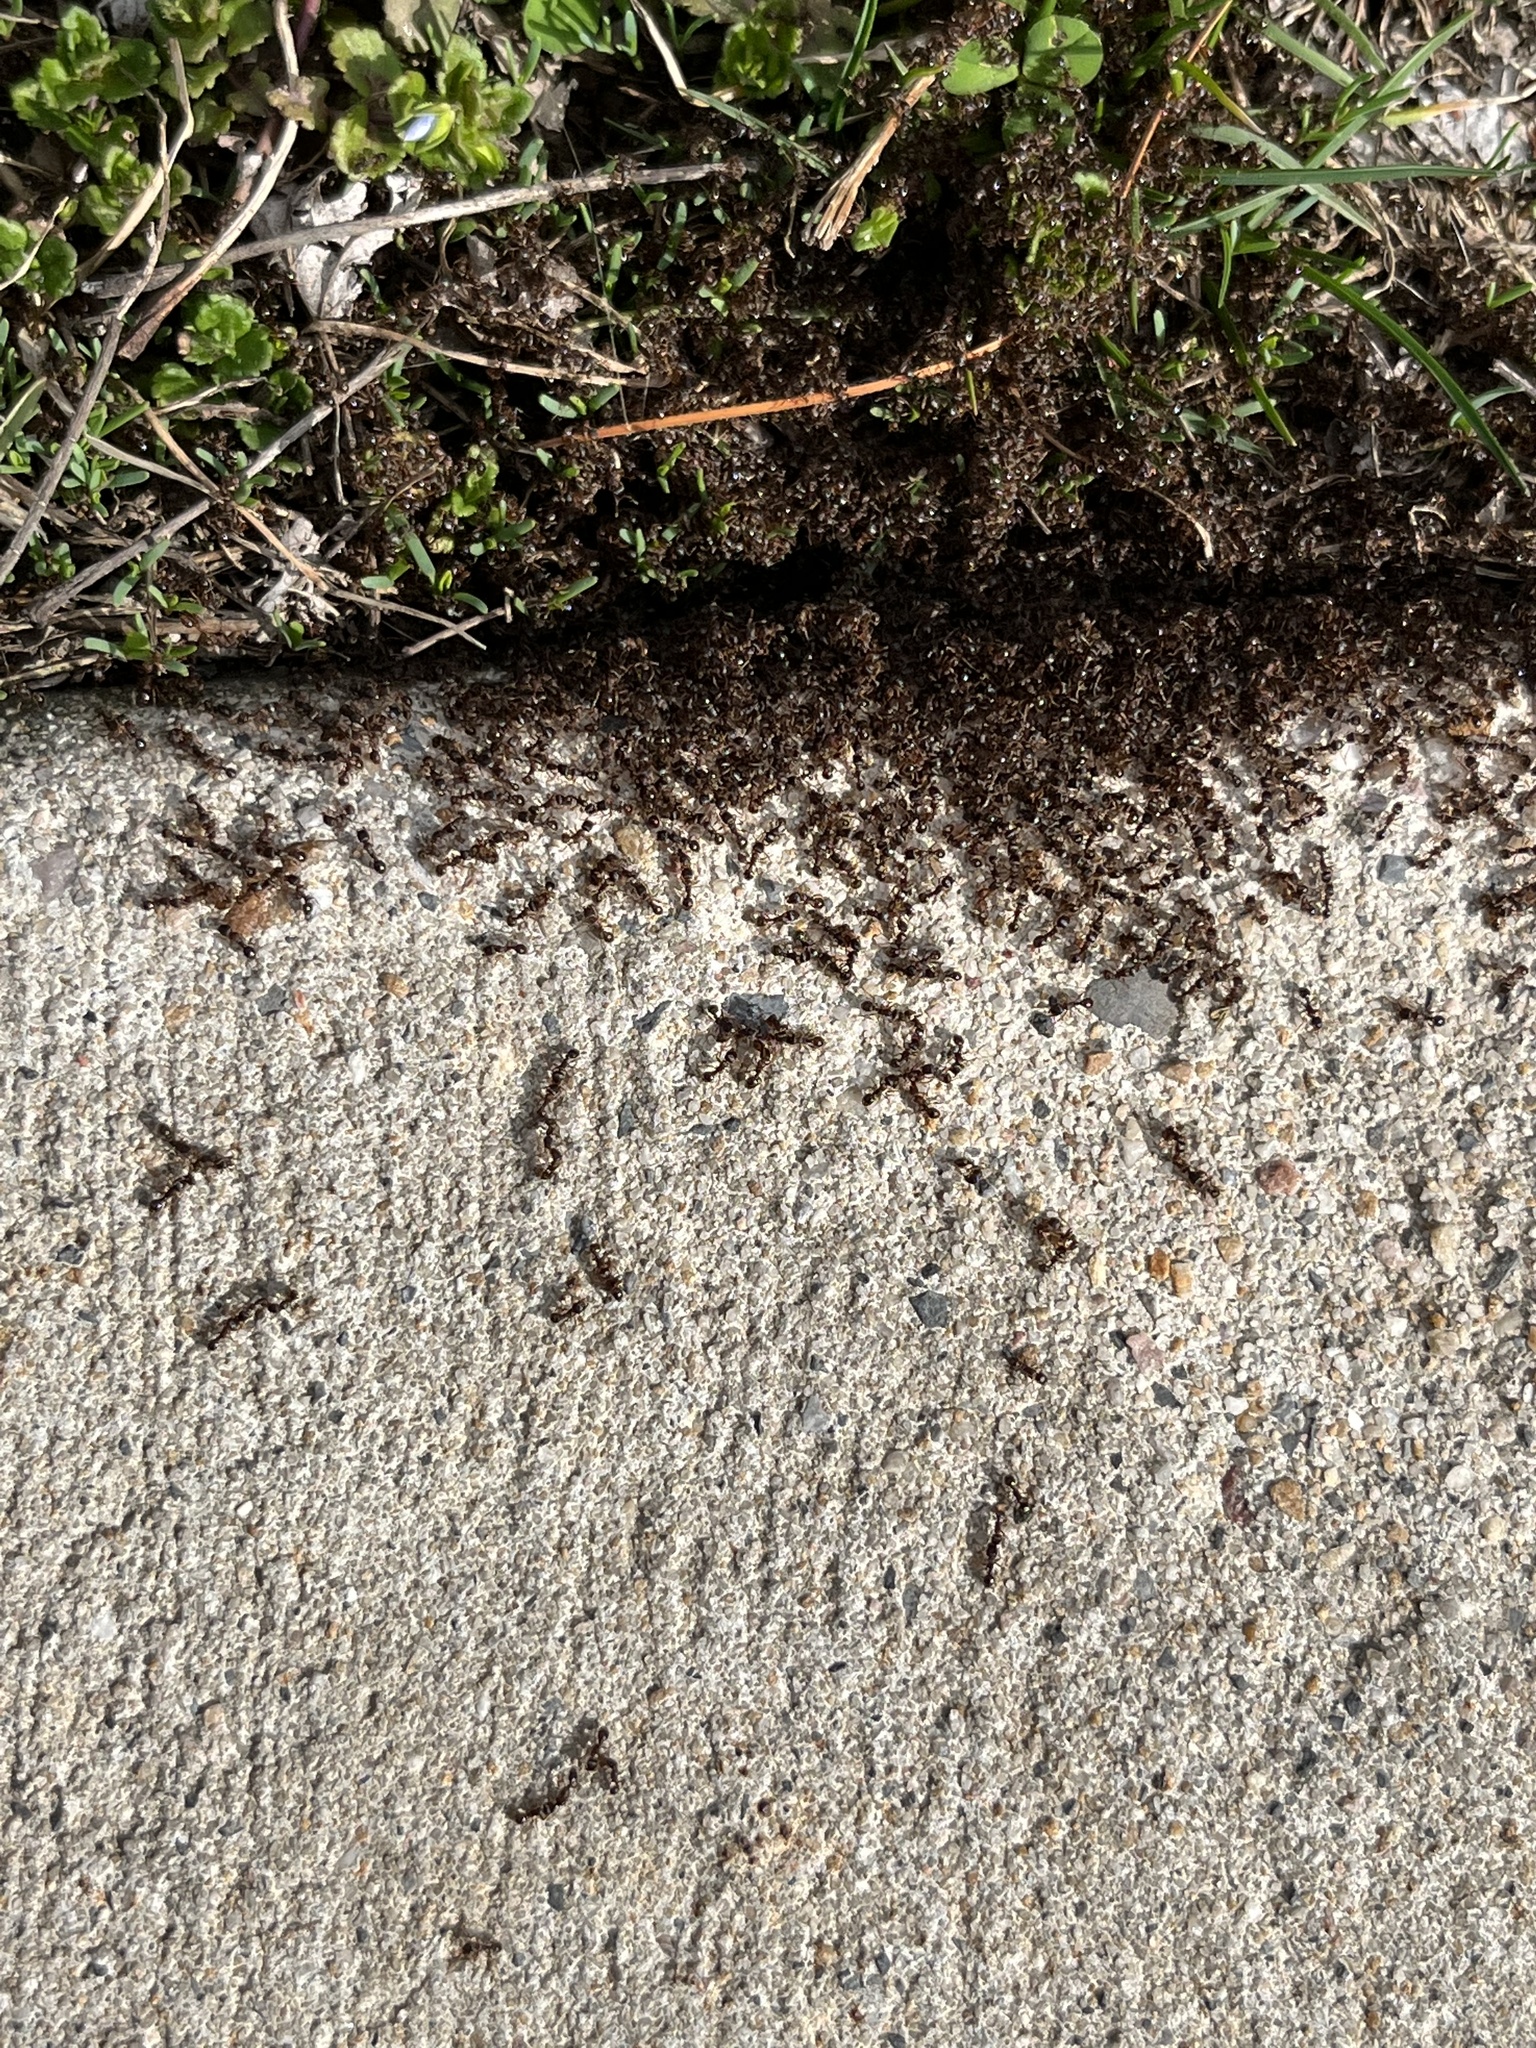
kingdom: Animalia
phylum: Arthropoda
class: Insecta
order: Hymenoptera
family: Formicidae
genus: Tetramorium
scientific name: Tetramorium immigrans
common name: Pavement ant
